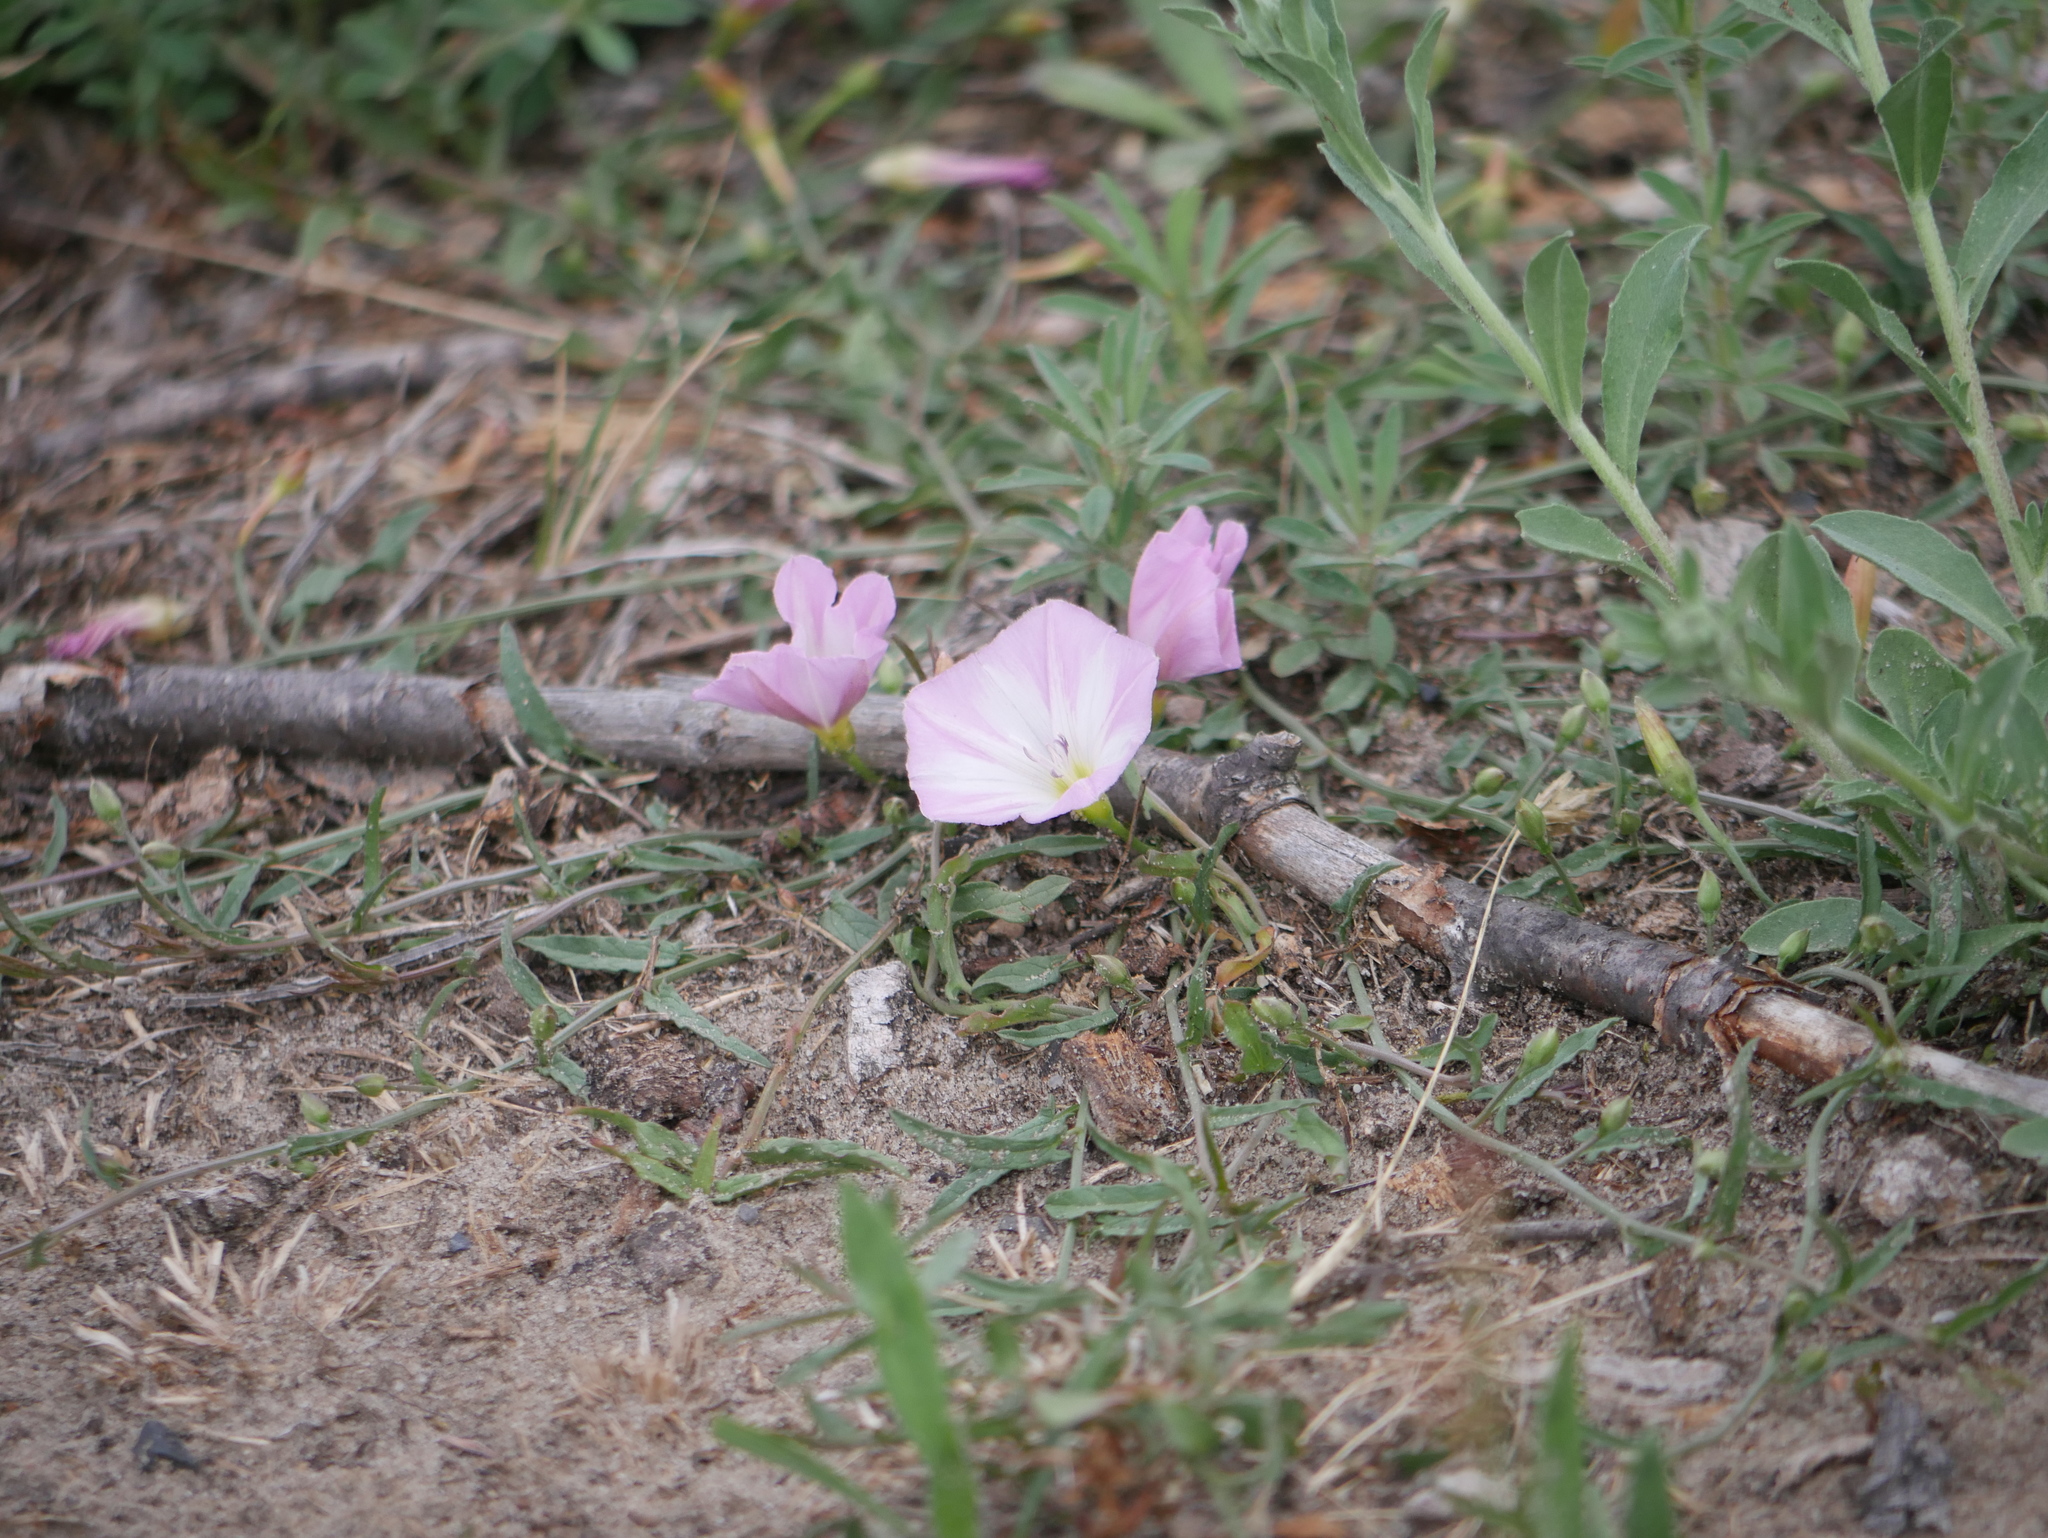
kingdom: Plantae
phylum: Tracheophyta
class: Magnoliopsida
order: Solanales
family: Convolvulaceae
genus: Convolvulus
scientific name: Convolvulus arvensis
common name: Field bindweed
